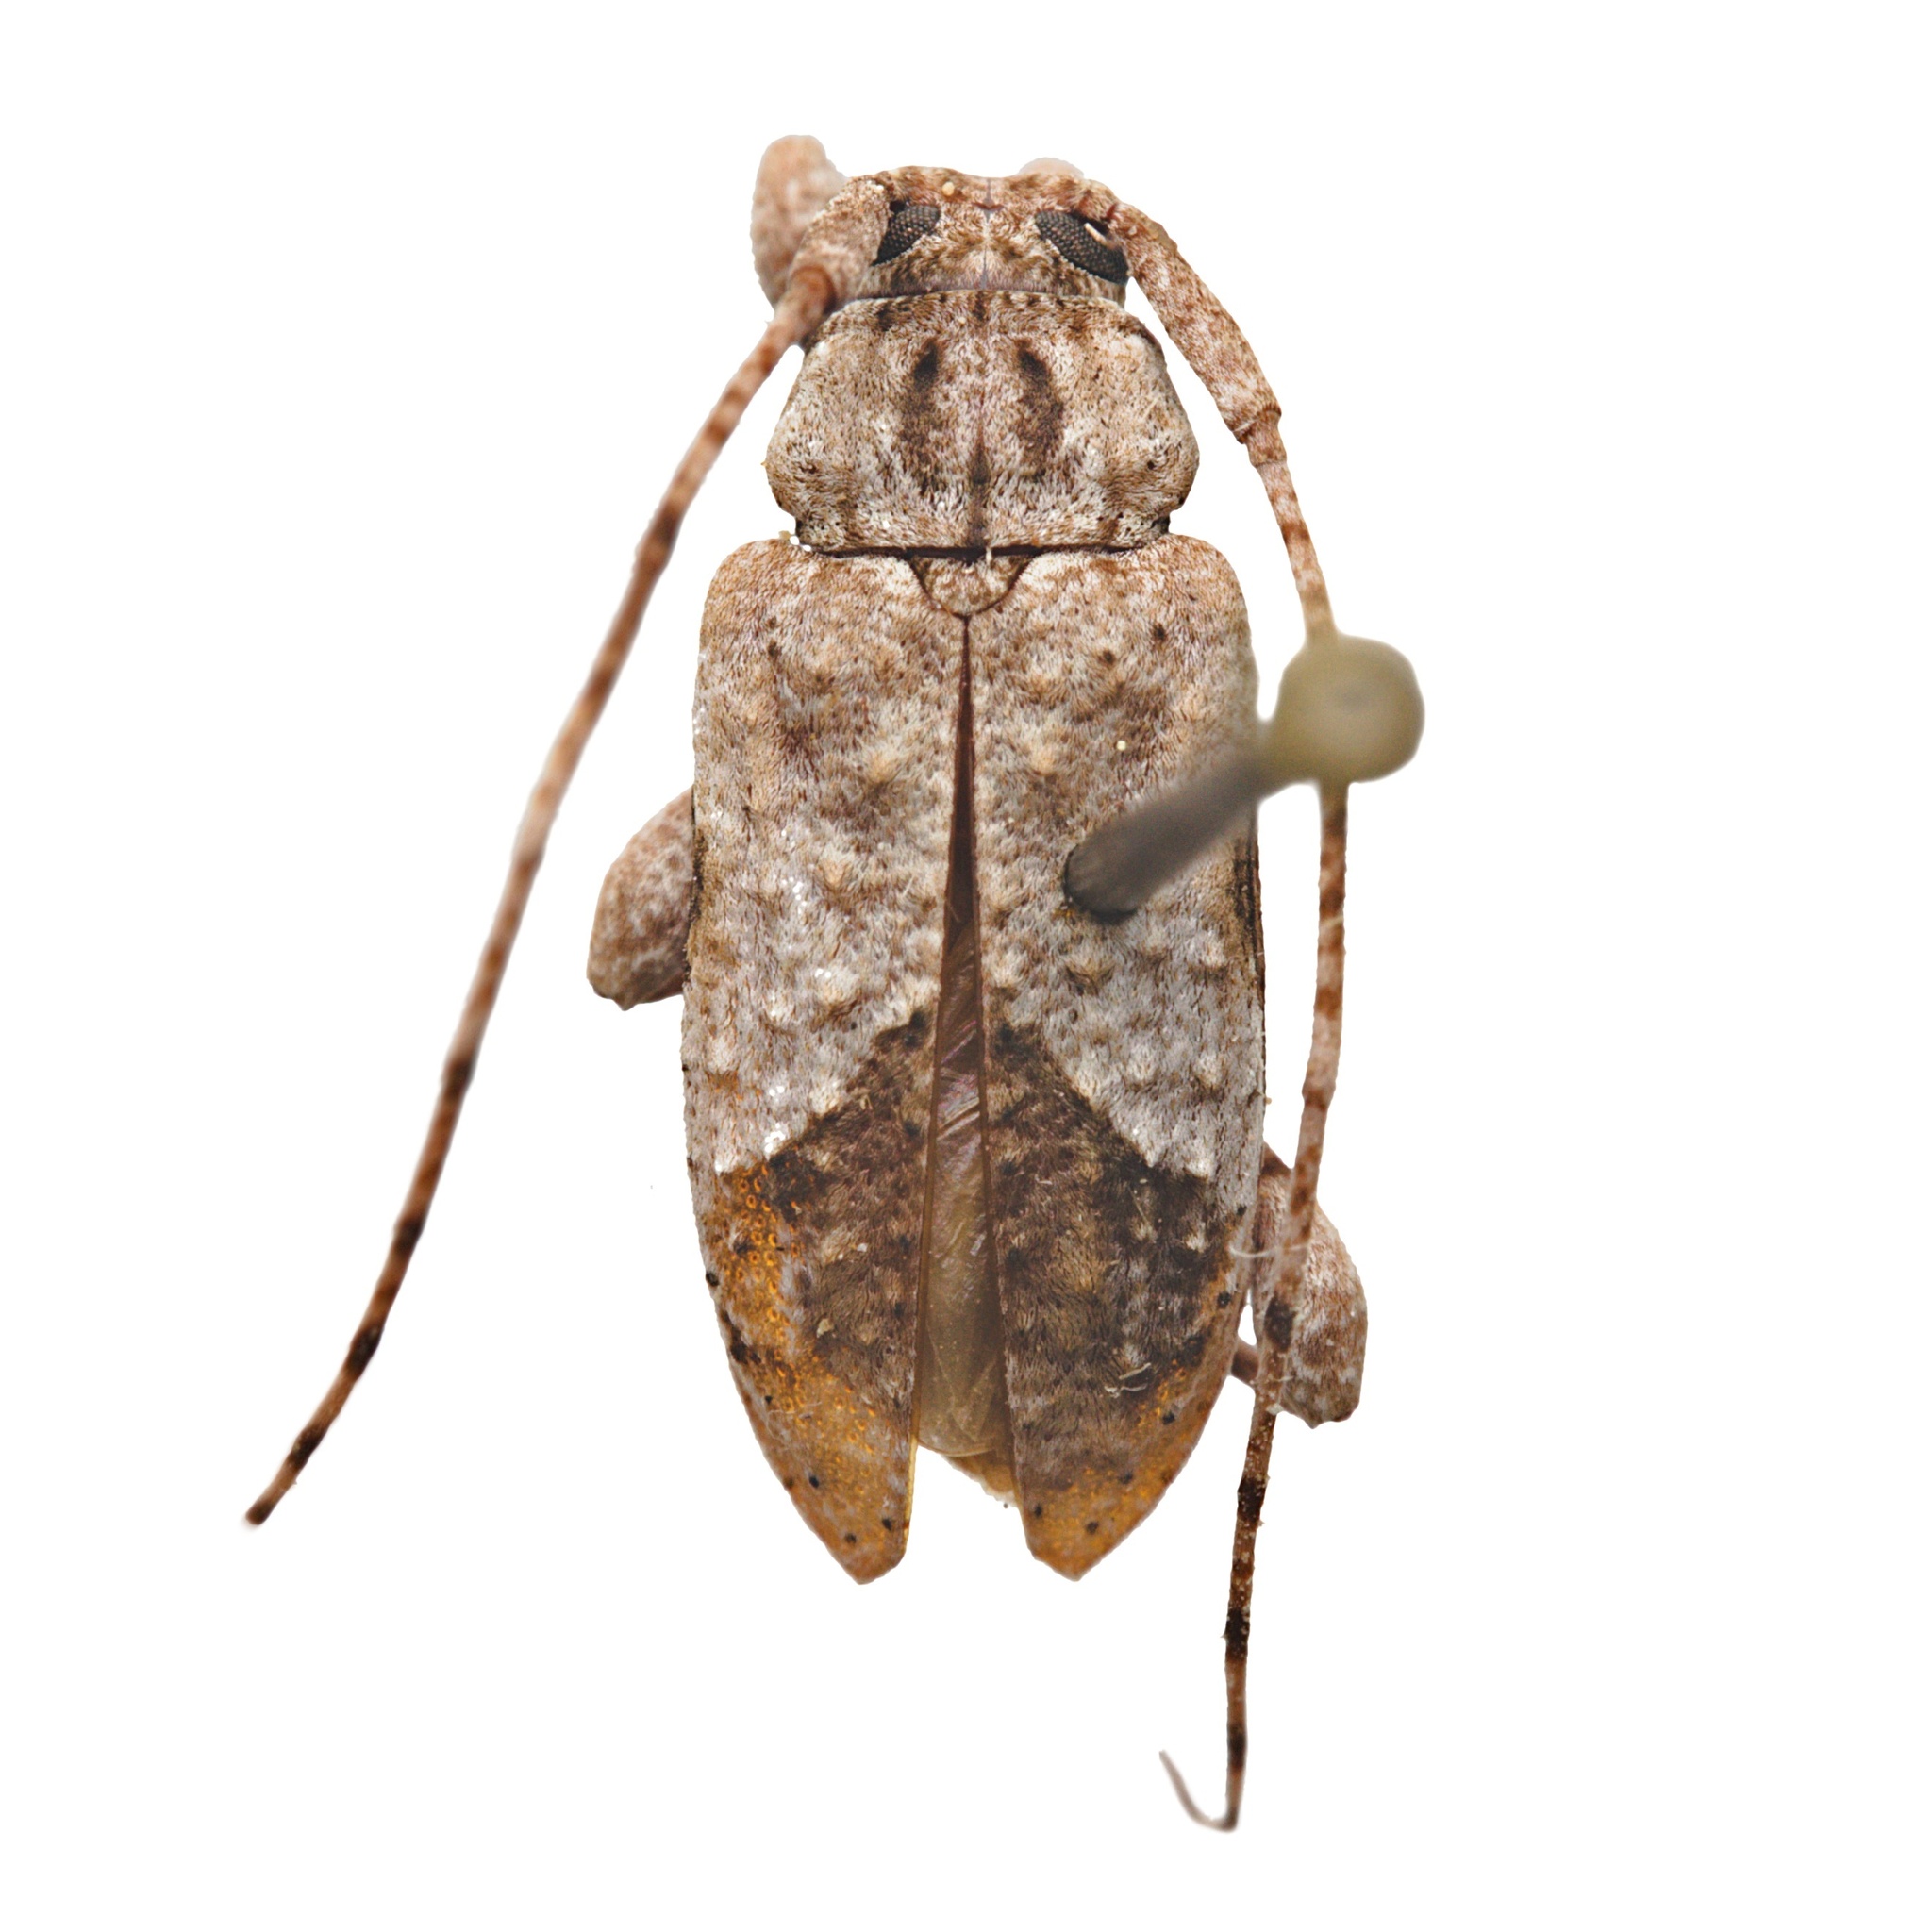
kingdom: Animalia
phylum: Arthropoda
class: Insecta
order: Coleoptera
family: Cerambycidae
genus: Styloleptus
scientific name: Styloleptus biustus
